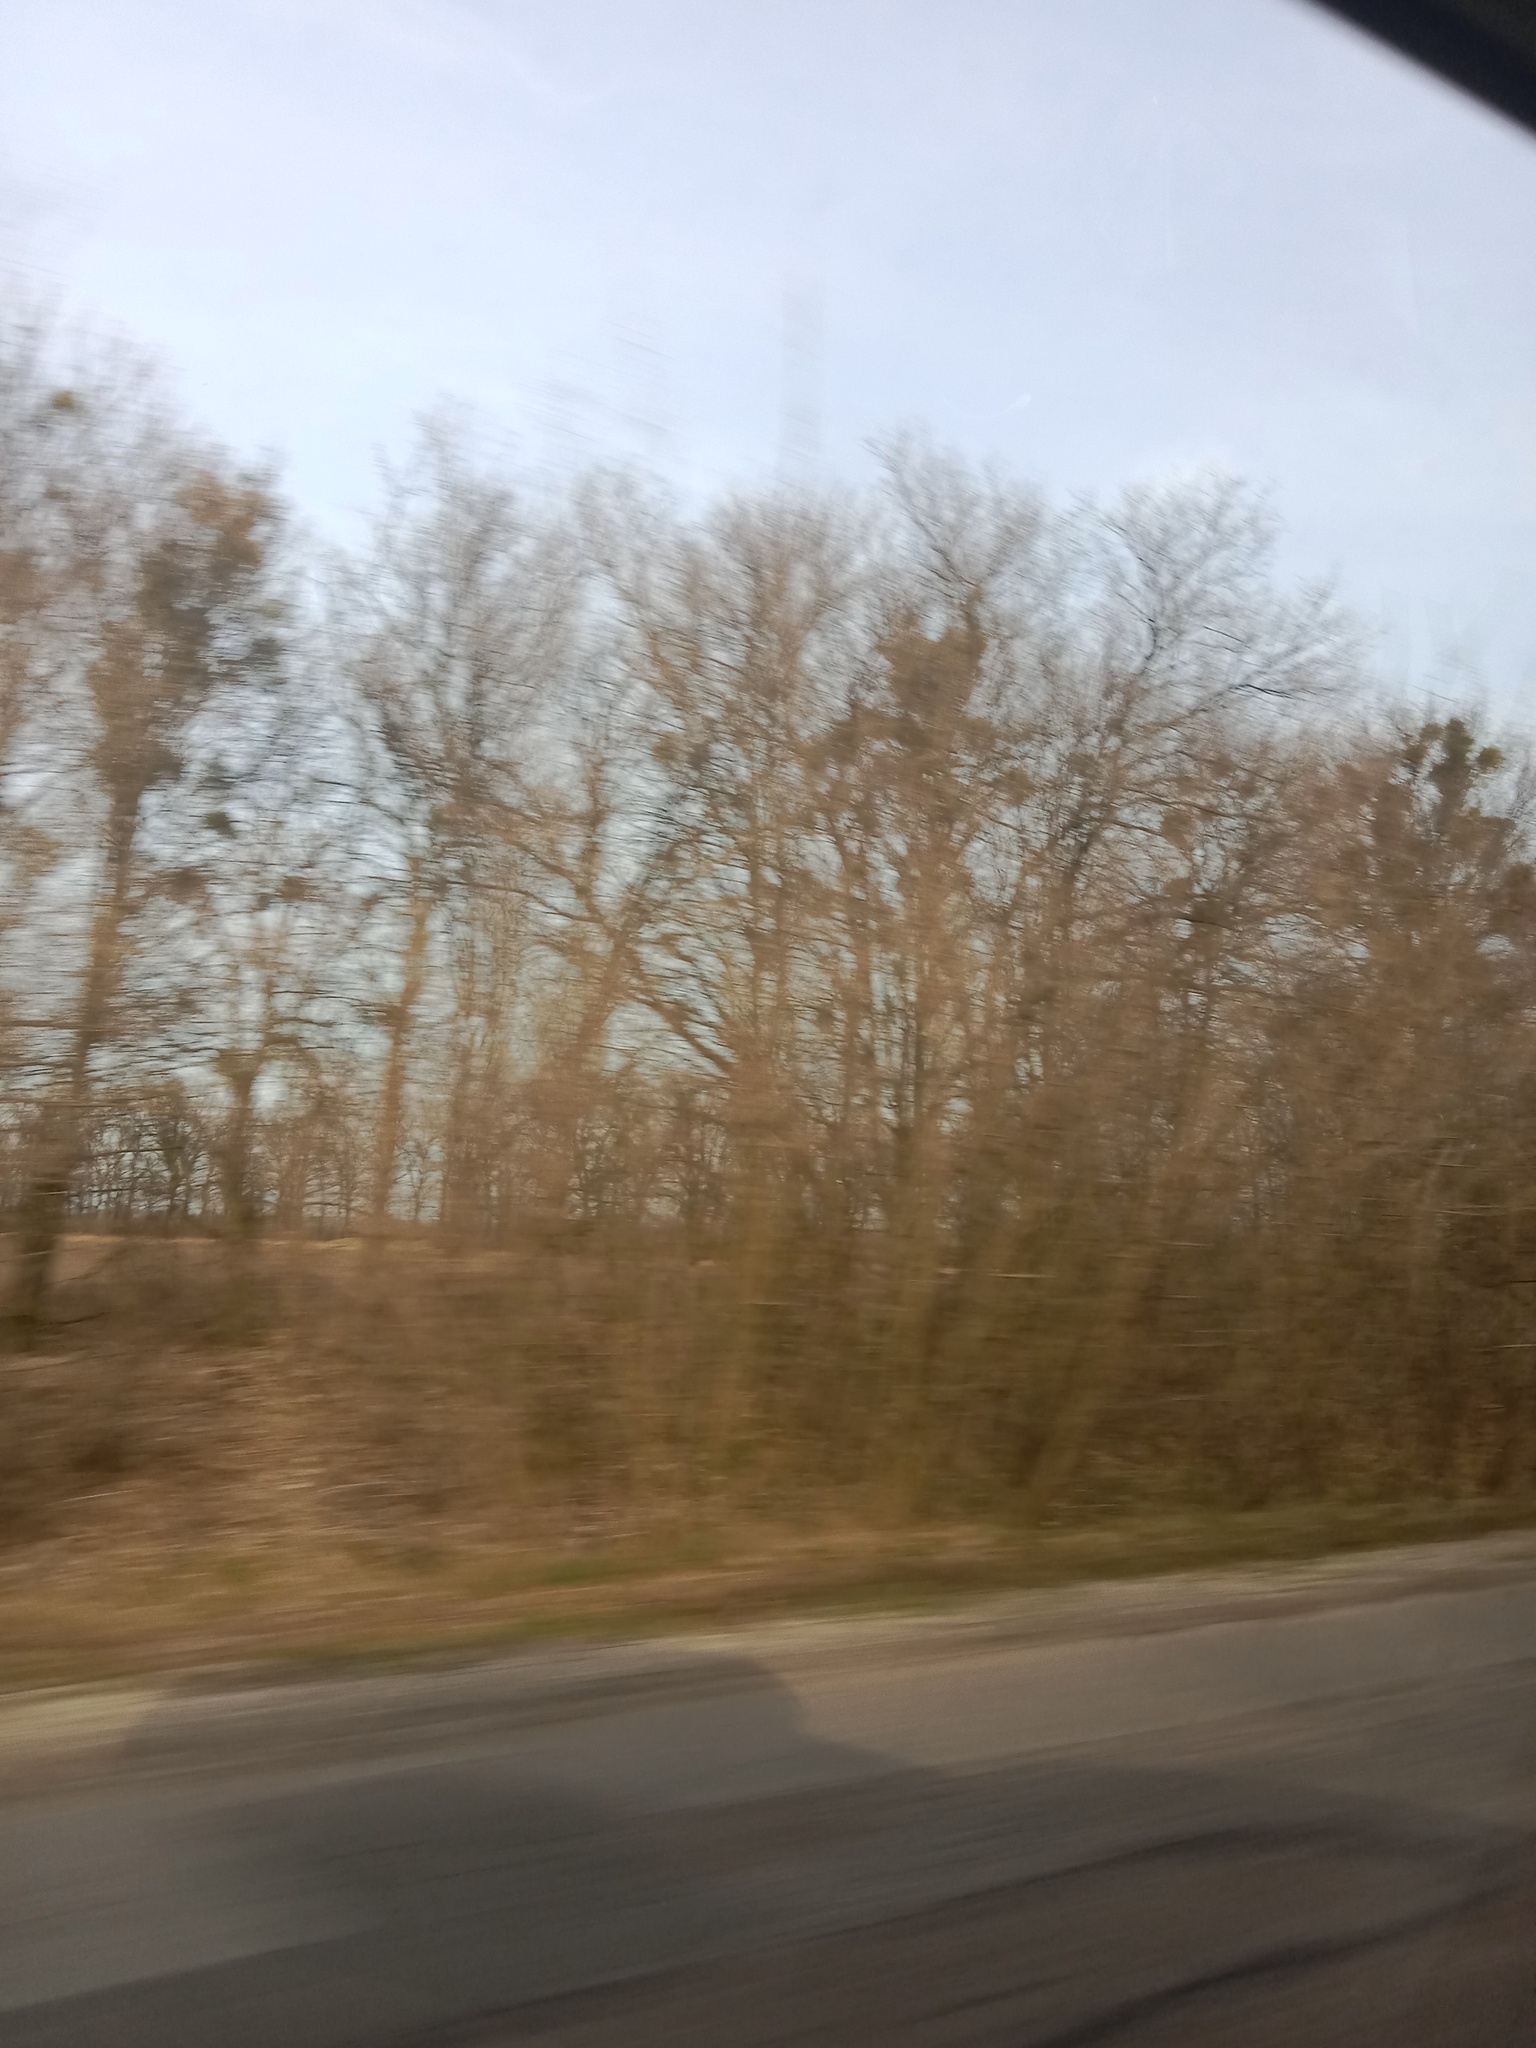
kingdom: Plantae
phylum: Tracheophyta
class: Magnoliopsida
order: Santalales
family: Viscaceae
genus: Viscum
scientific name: Viscum album
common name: Mistletoe
